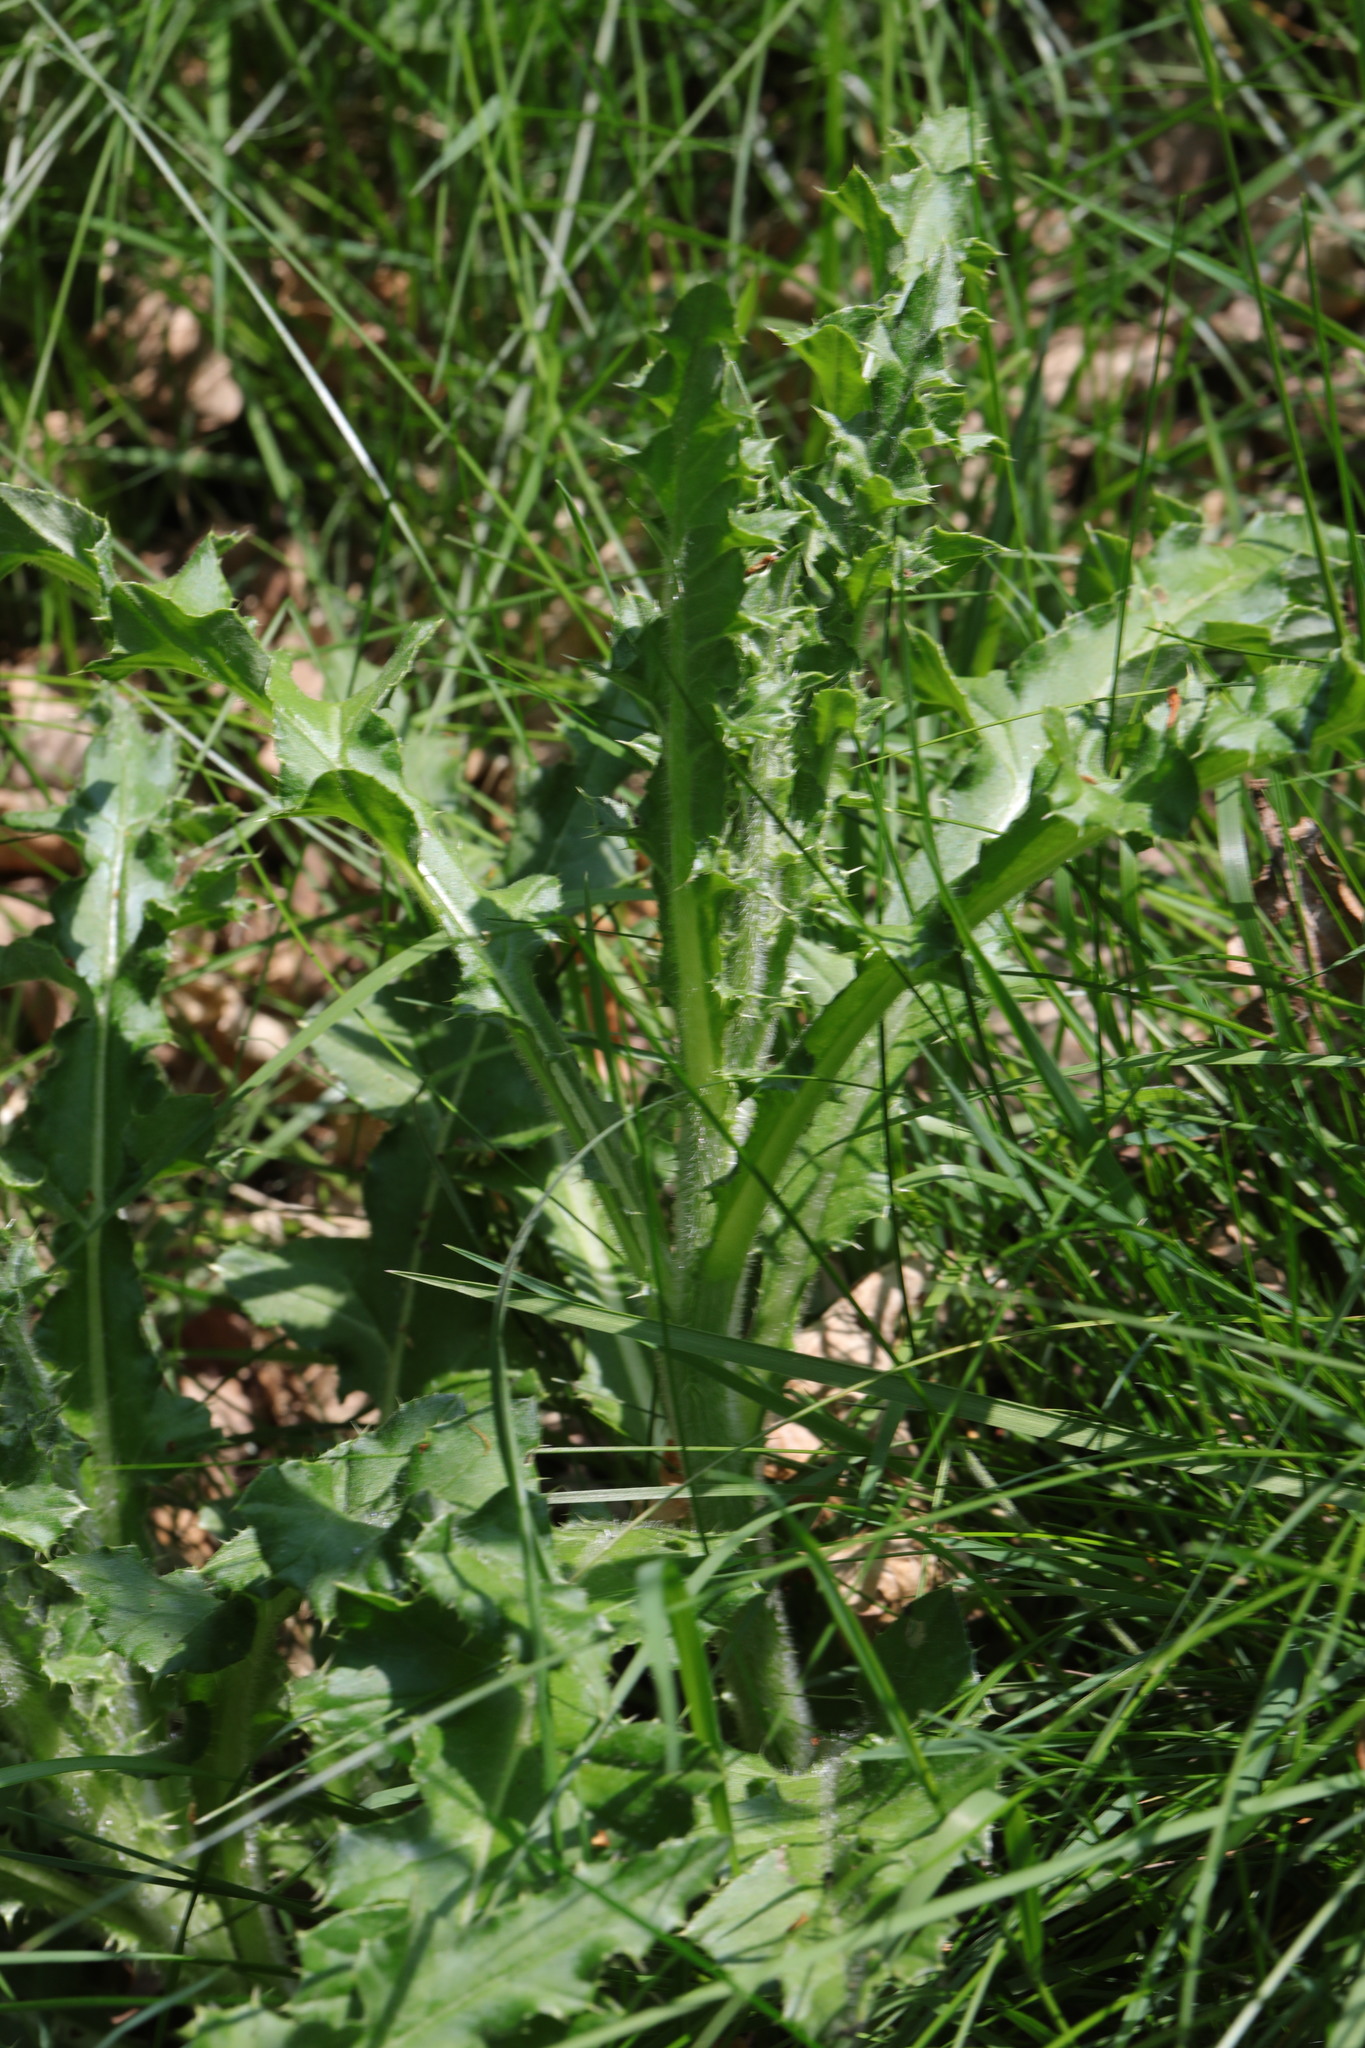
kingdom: Plantae
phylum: Tracheophyta
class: Magnoliopsida
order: Asterales
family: Asteraceae
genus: Cirsium
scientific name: Cirsium arvense
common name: Creeping thistle
